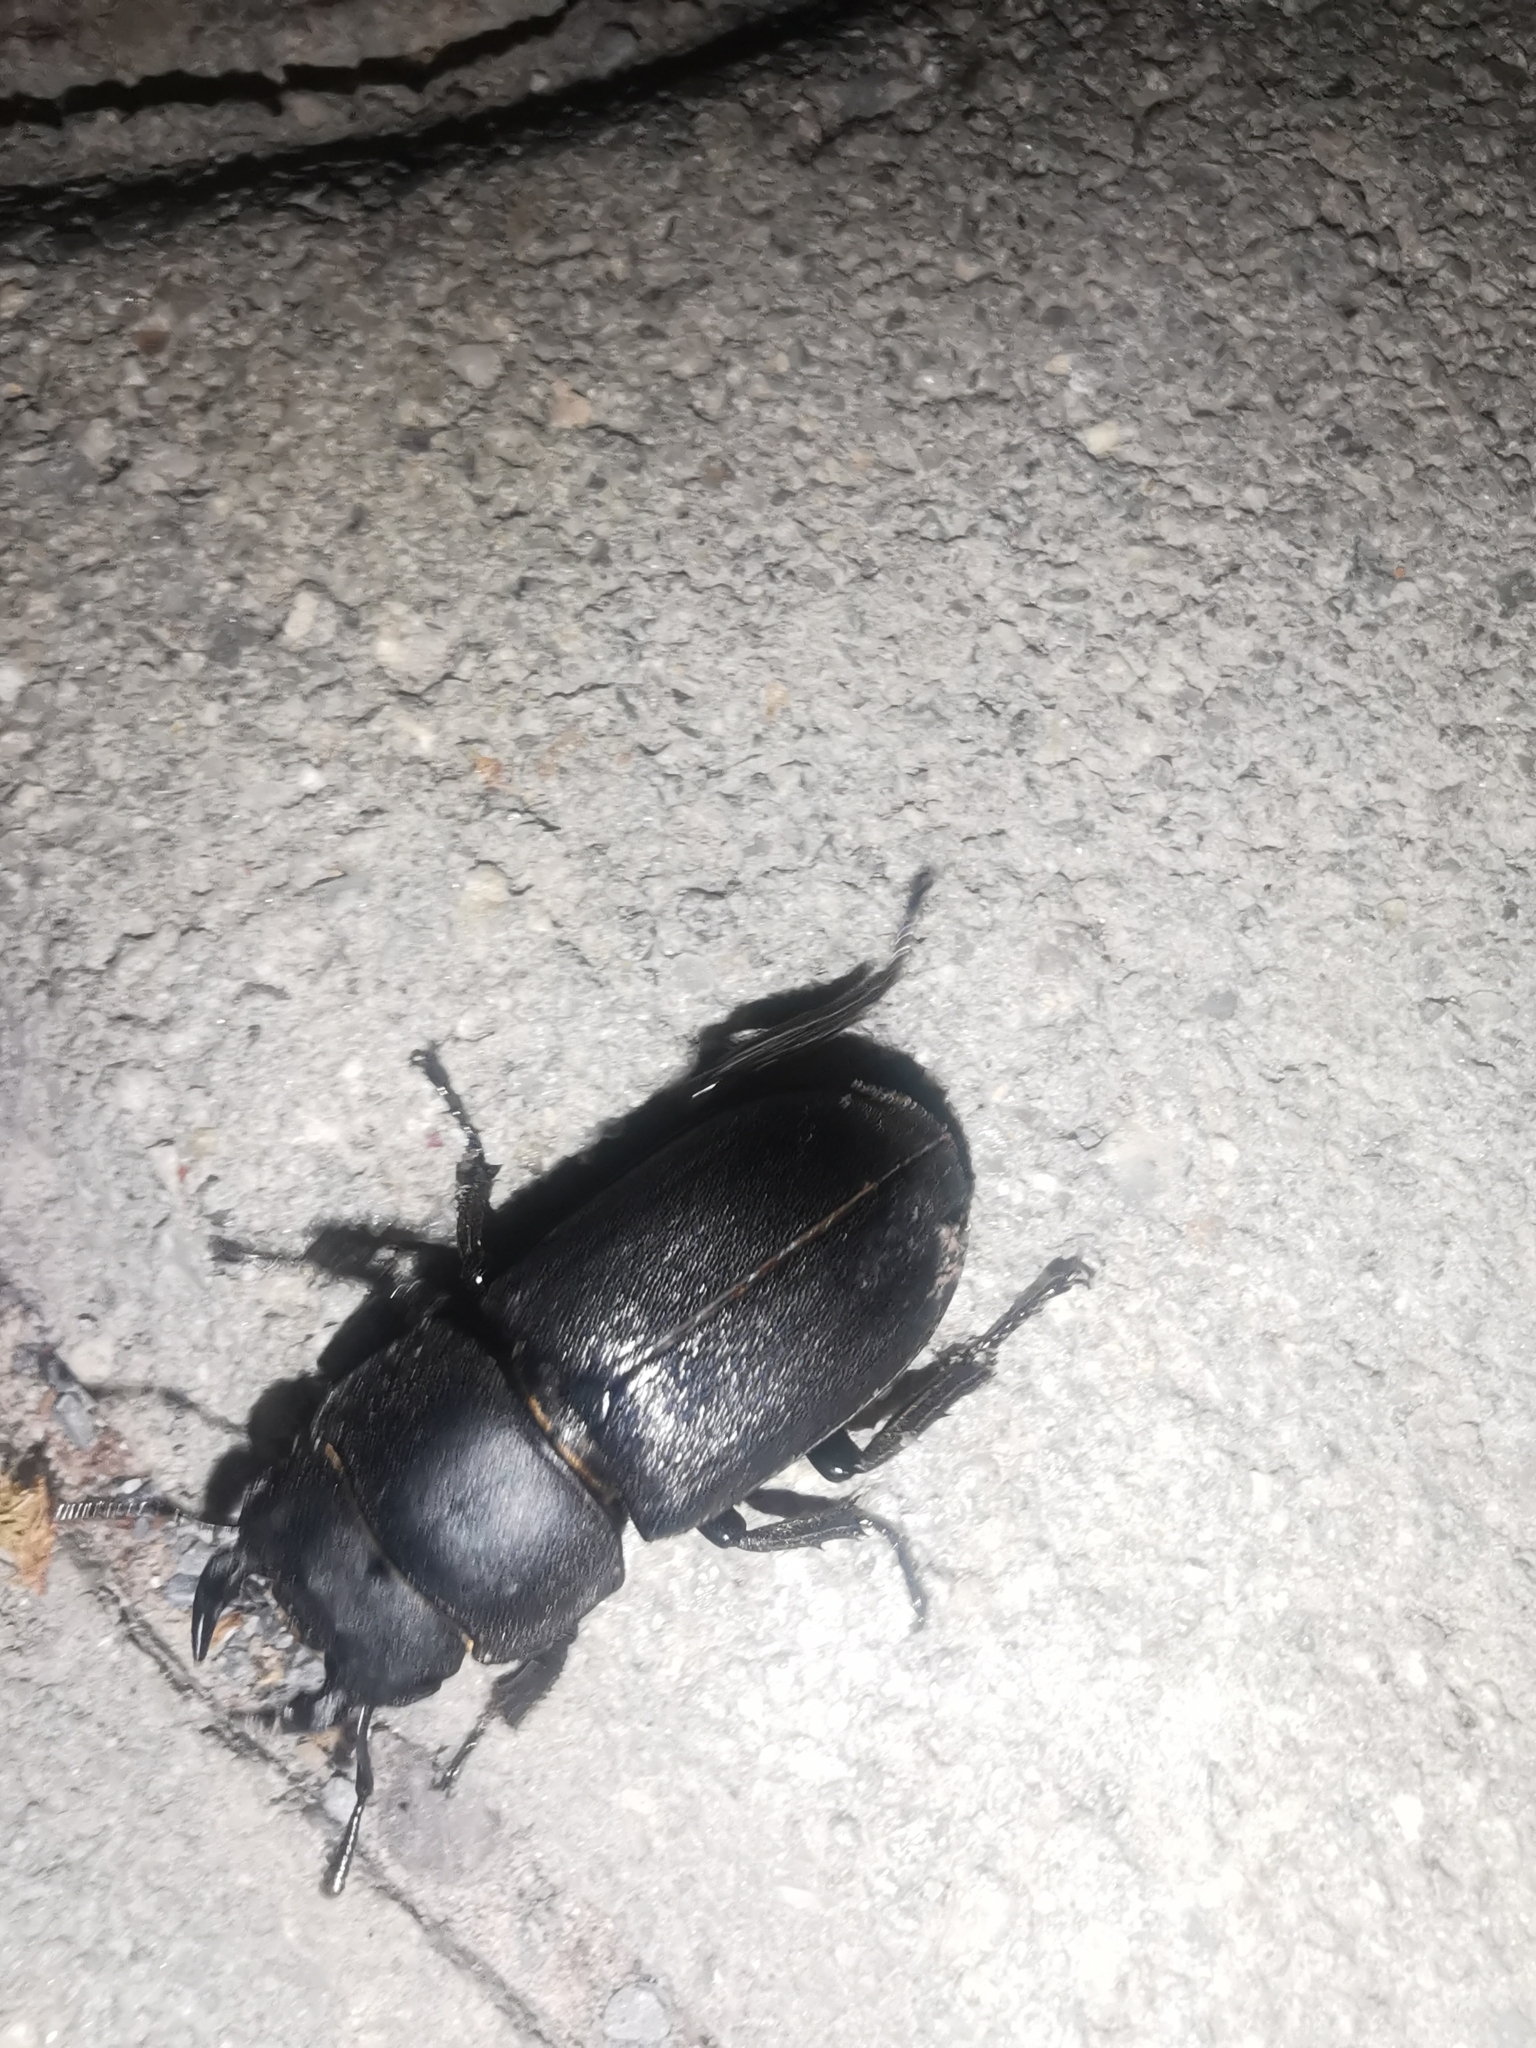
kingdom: Animalia
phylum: Arthropoda
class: Insecta
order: Coleoptera
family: Lucanidae
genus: Dorcus
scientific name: Dorcus parallelipipedus
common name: Lesser stag beetle
